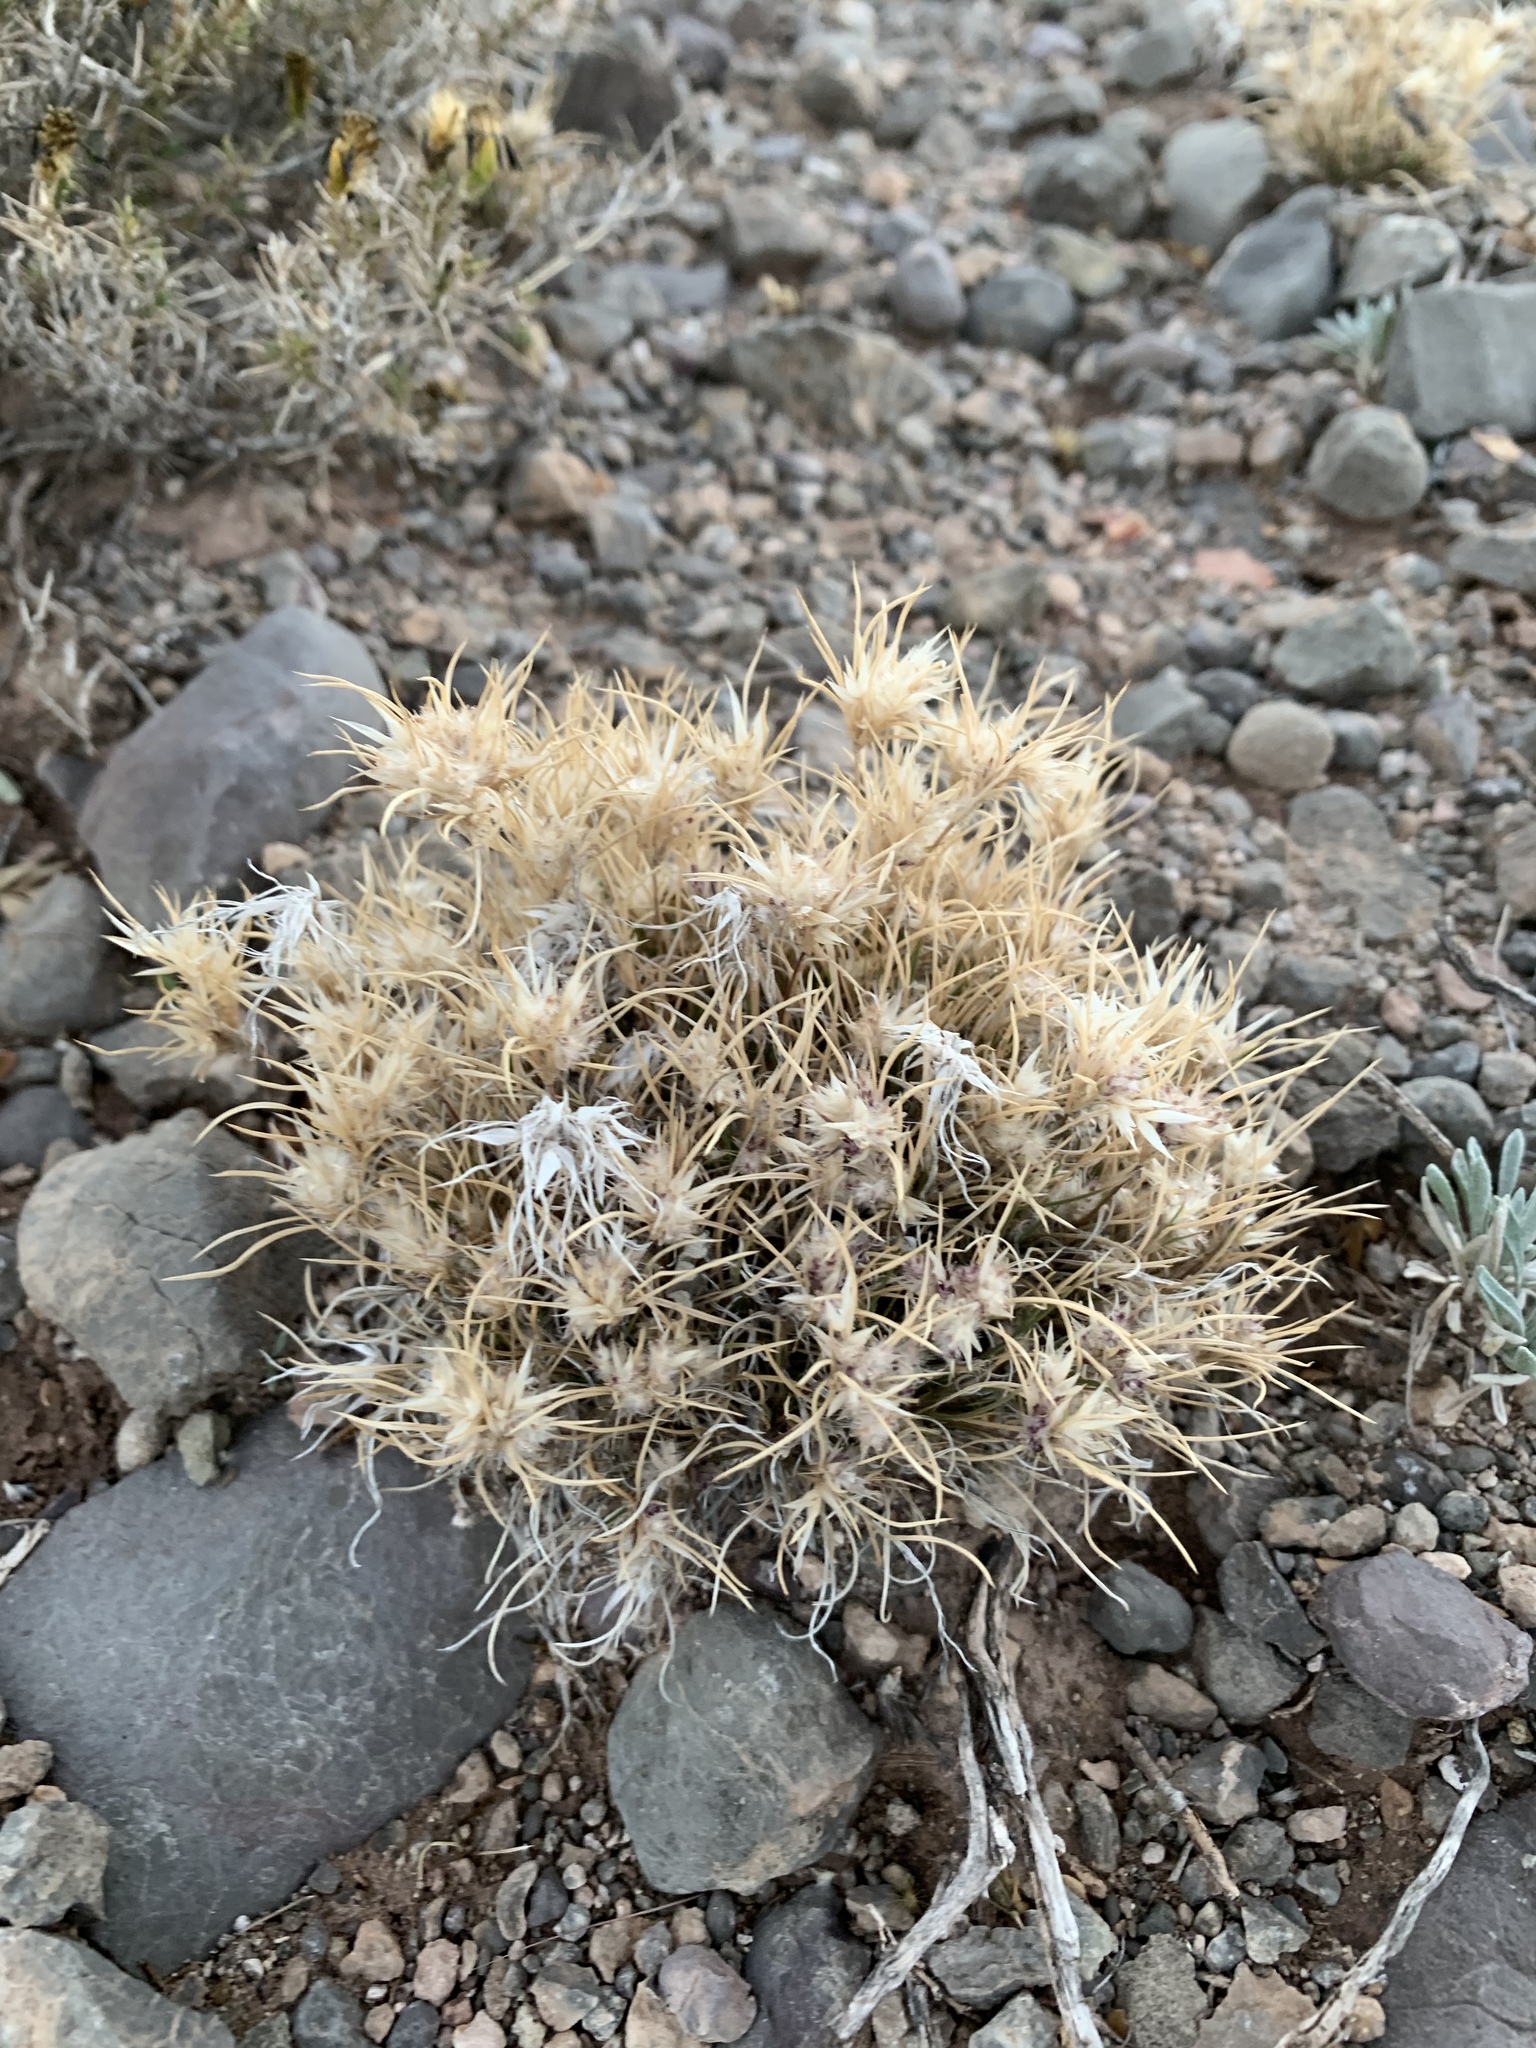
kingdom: Plantae
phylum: Tracheophyta
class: Liliopsida
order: Poales
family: Poaceae
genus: Dasyochloa
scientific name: Dasyochloa pulchella
